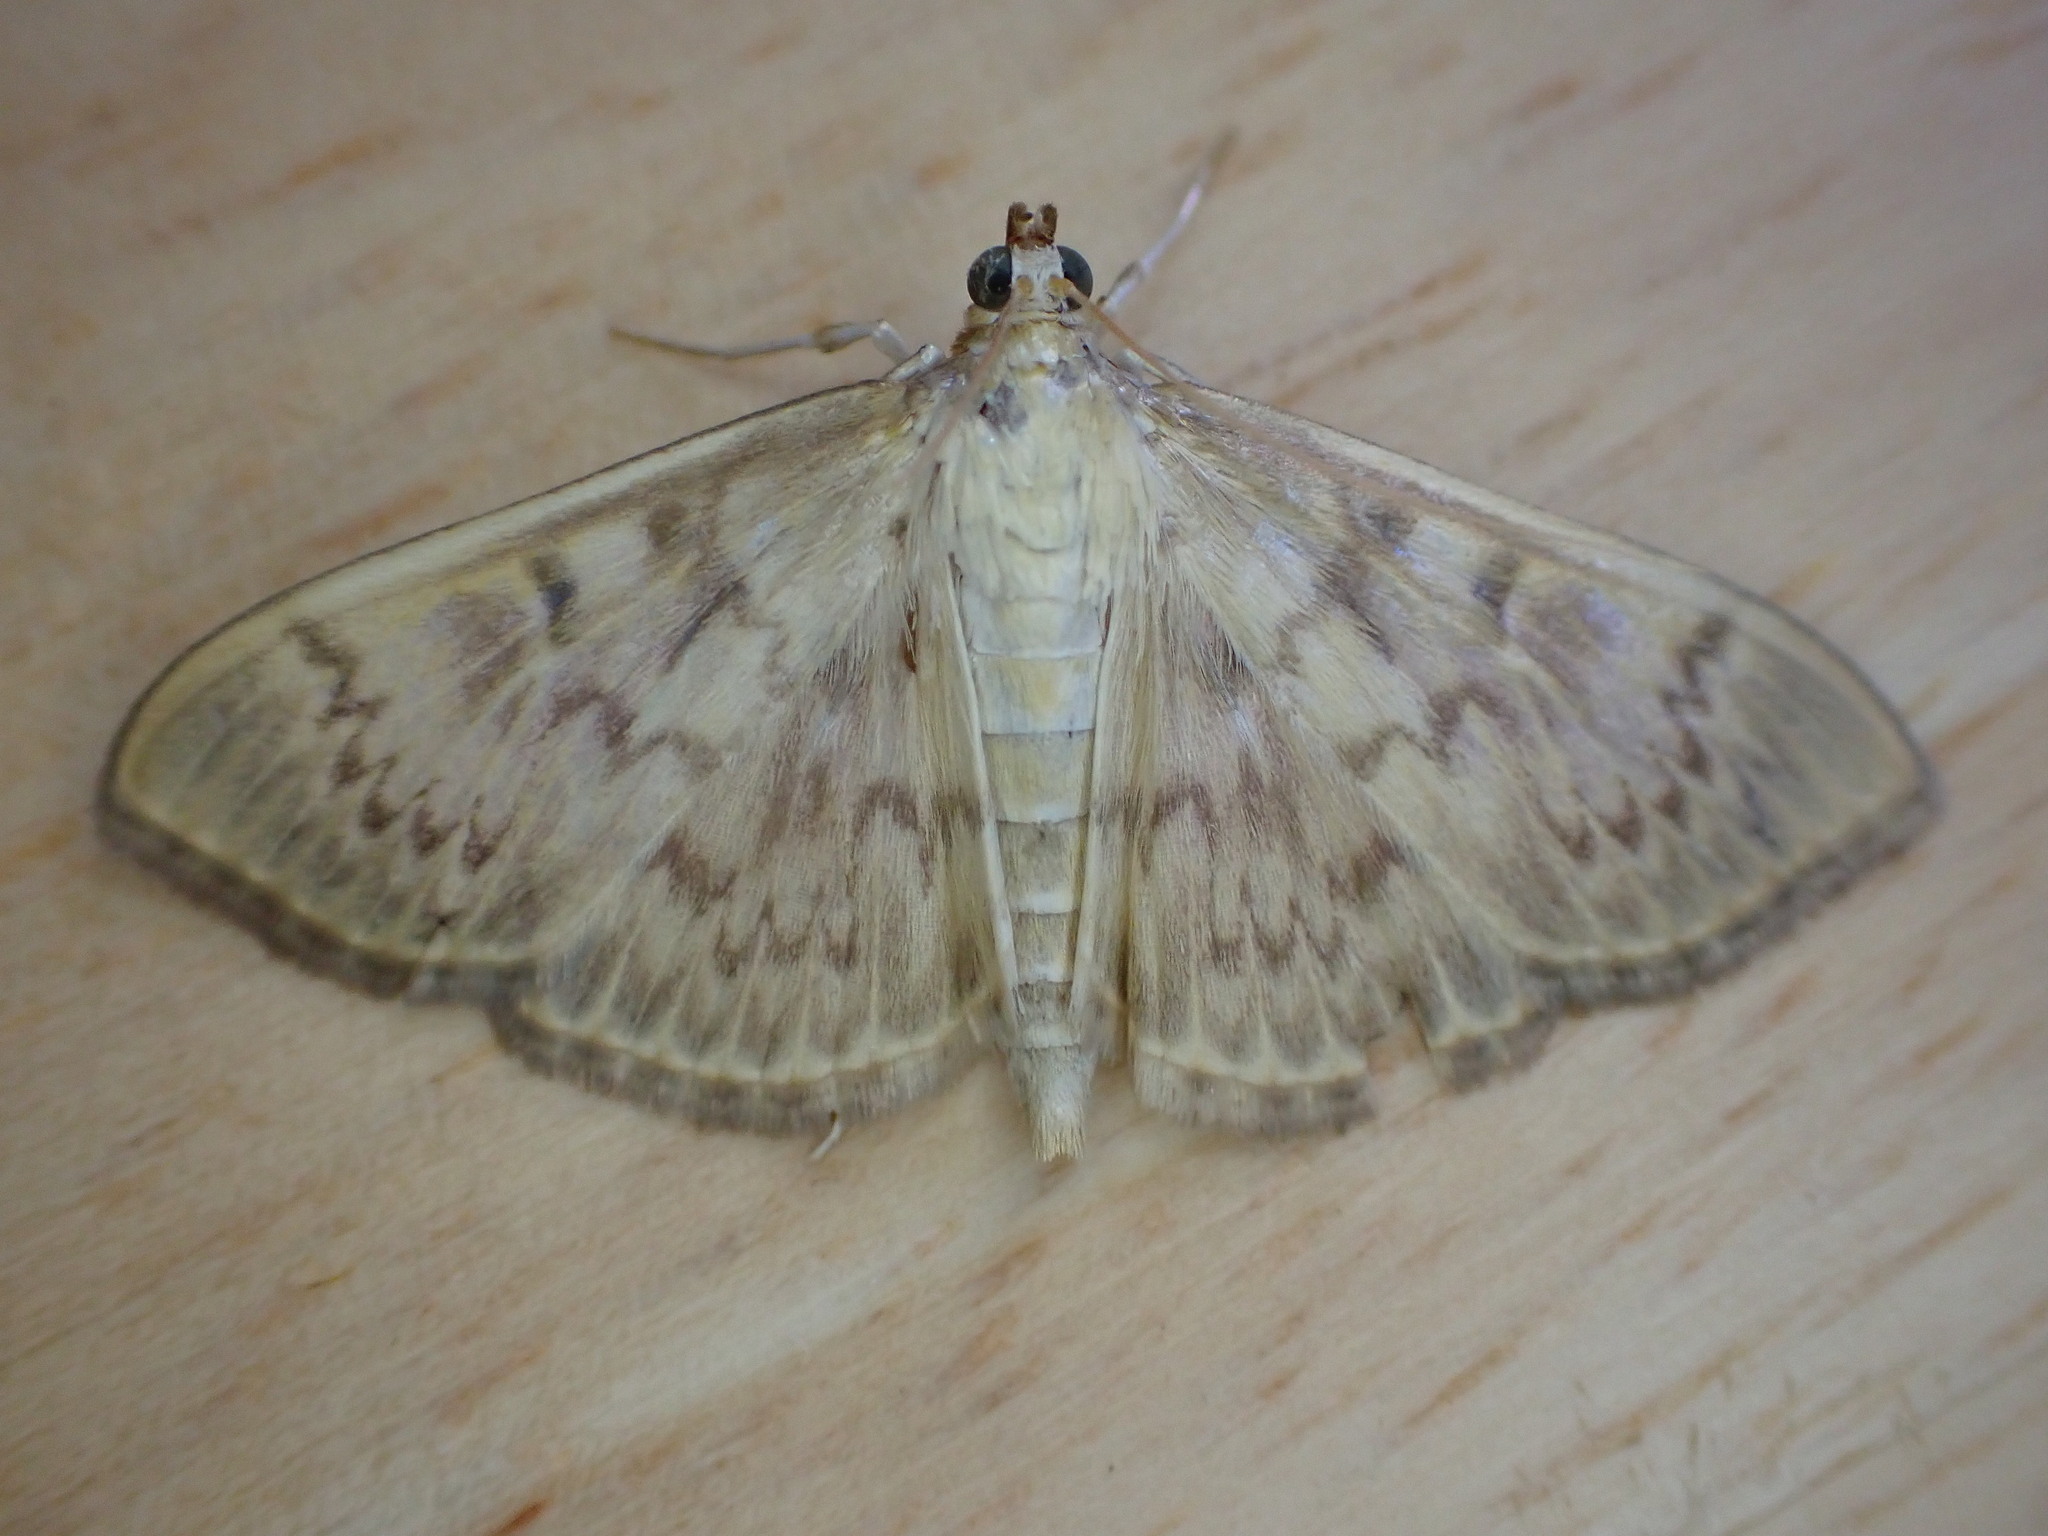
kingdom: Animalia
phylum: Arthropoda
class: Insecta
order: Lepidoptera
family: Crambidae
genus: Patania
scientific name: Patania ruralis
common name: Mother of pearl
